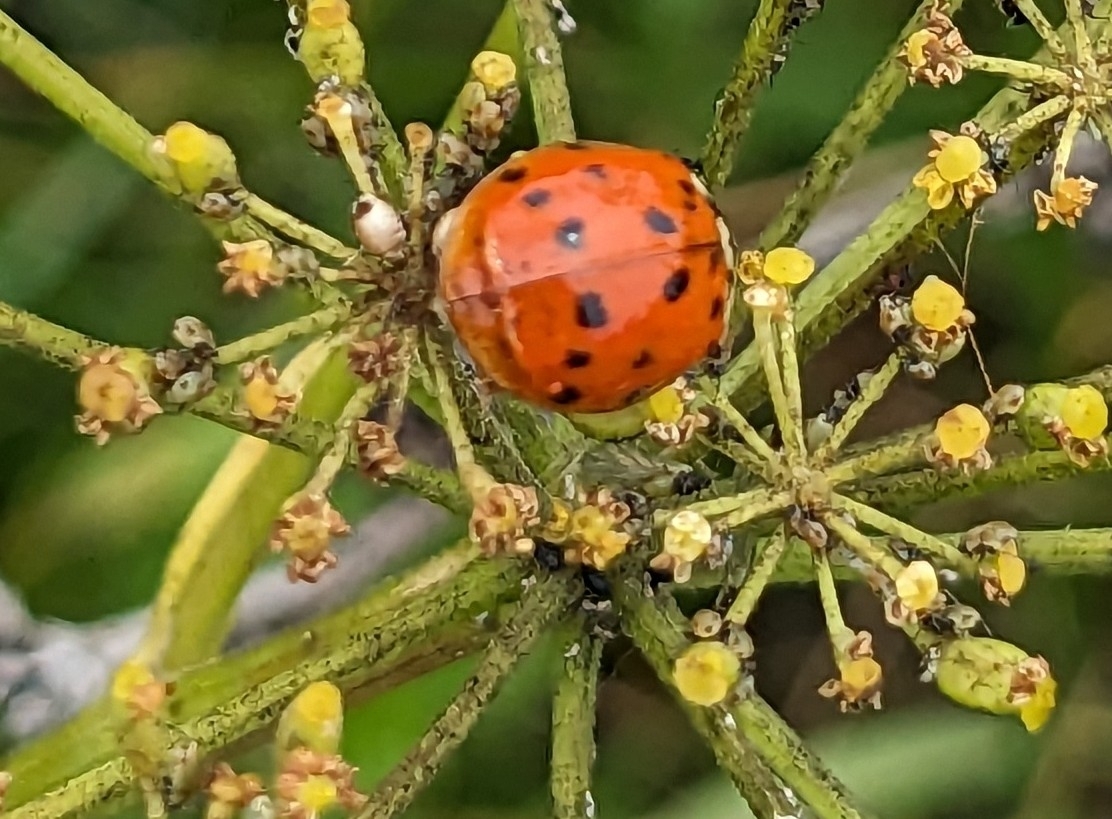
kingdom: Animalia
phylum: Arthropoda
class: Insecta
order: Coleoptera
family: Coccinellidae
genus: Harmonia
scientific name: Harmonia axyridis
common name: Harlequin ladybird
